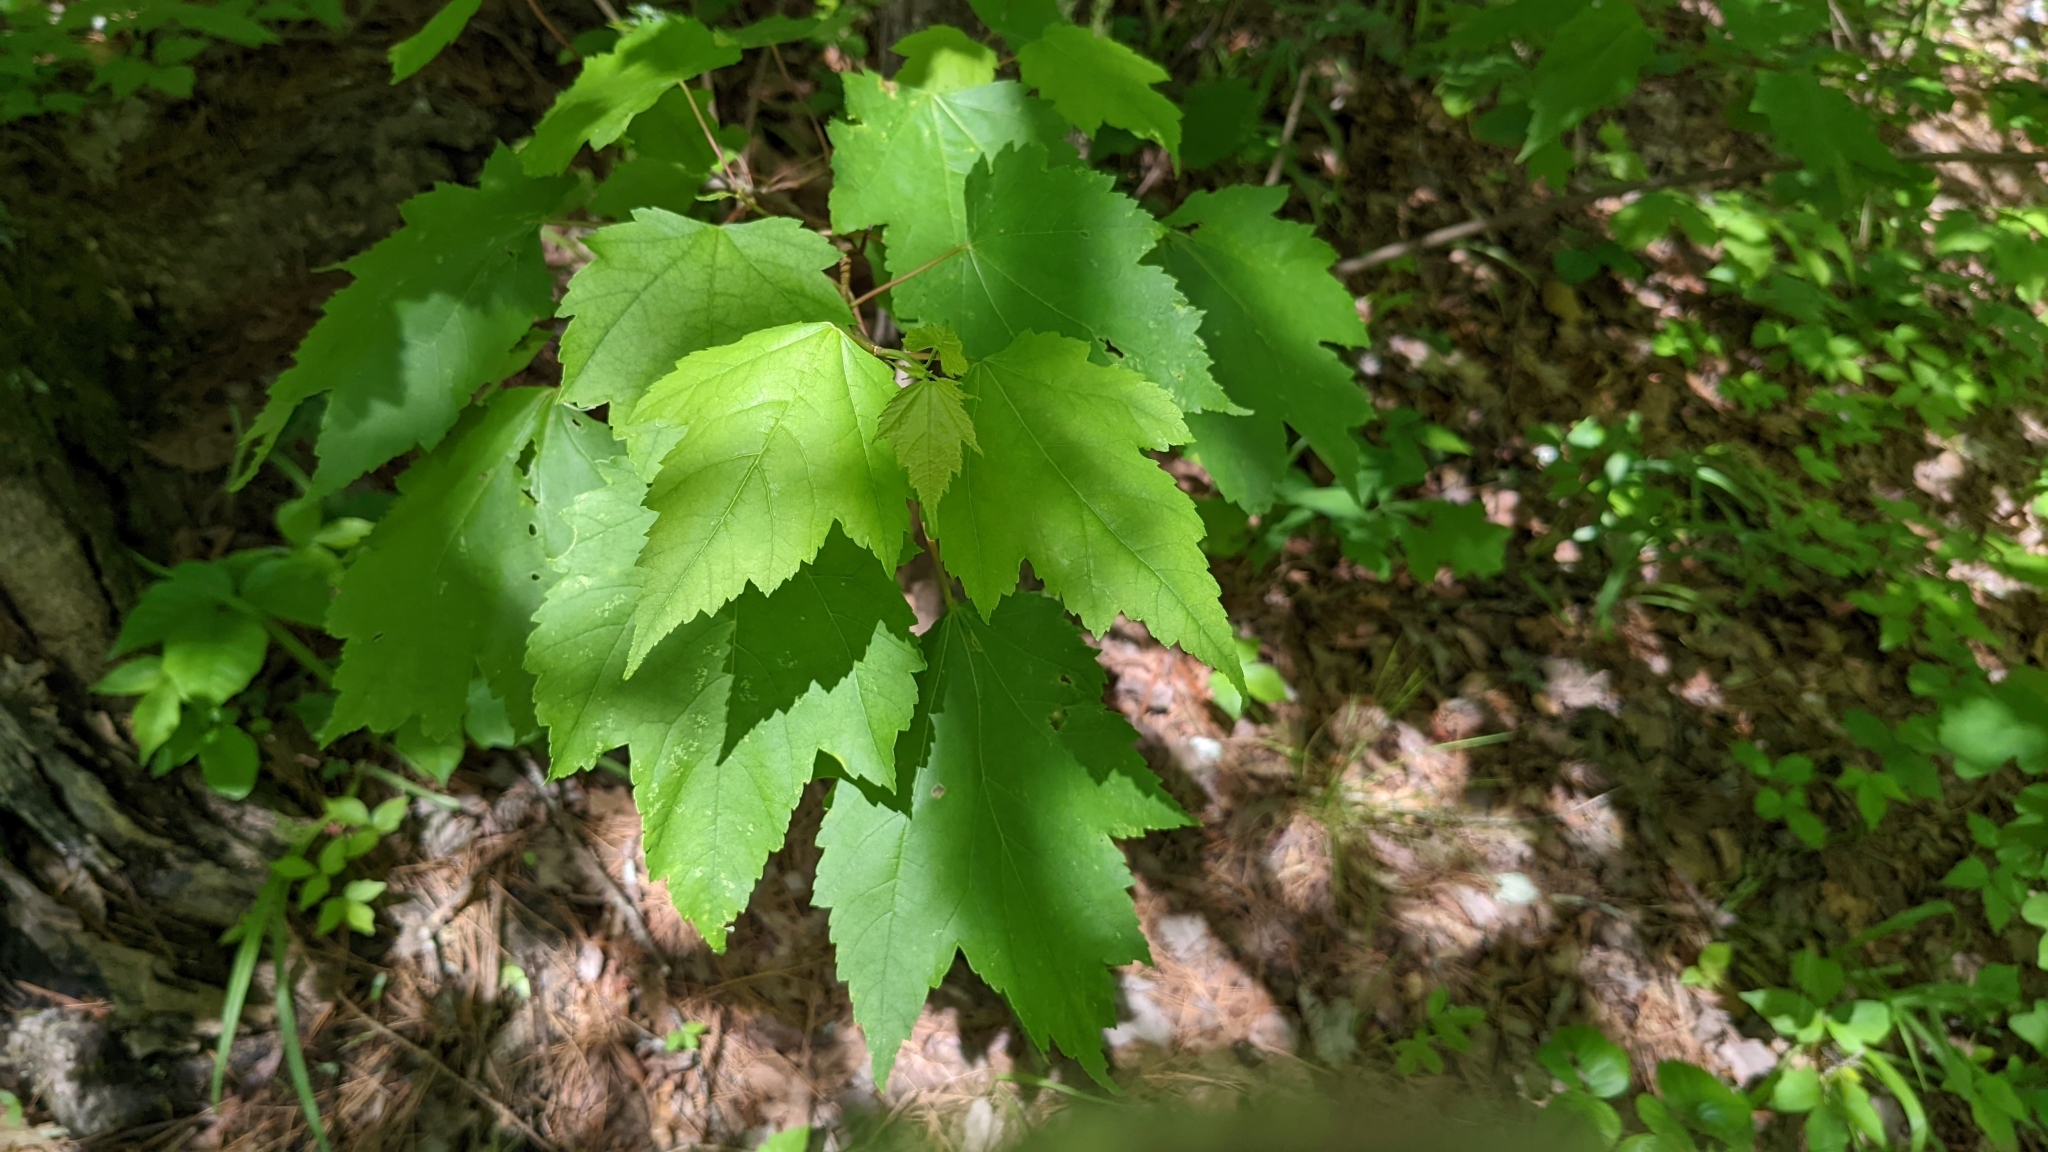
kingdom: Plantae
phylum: Tracheophyta
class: Magnoliopsida
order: Sapindales
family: Sapindaceae
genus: Acer
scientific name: Acer rubrum
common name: Red maple
